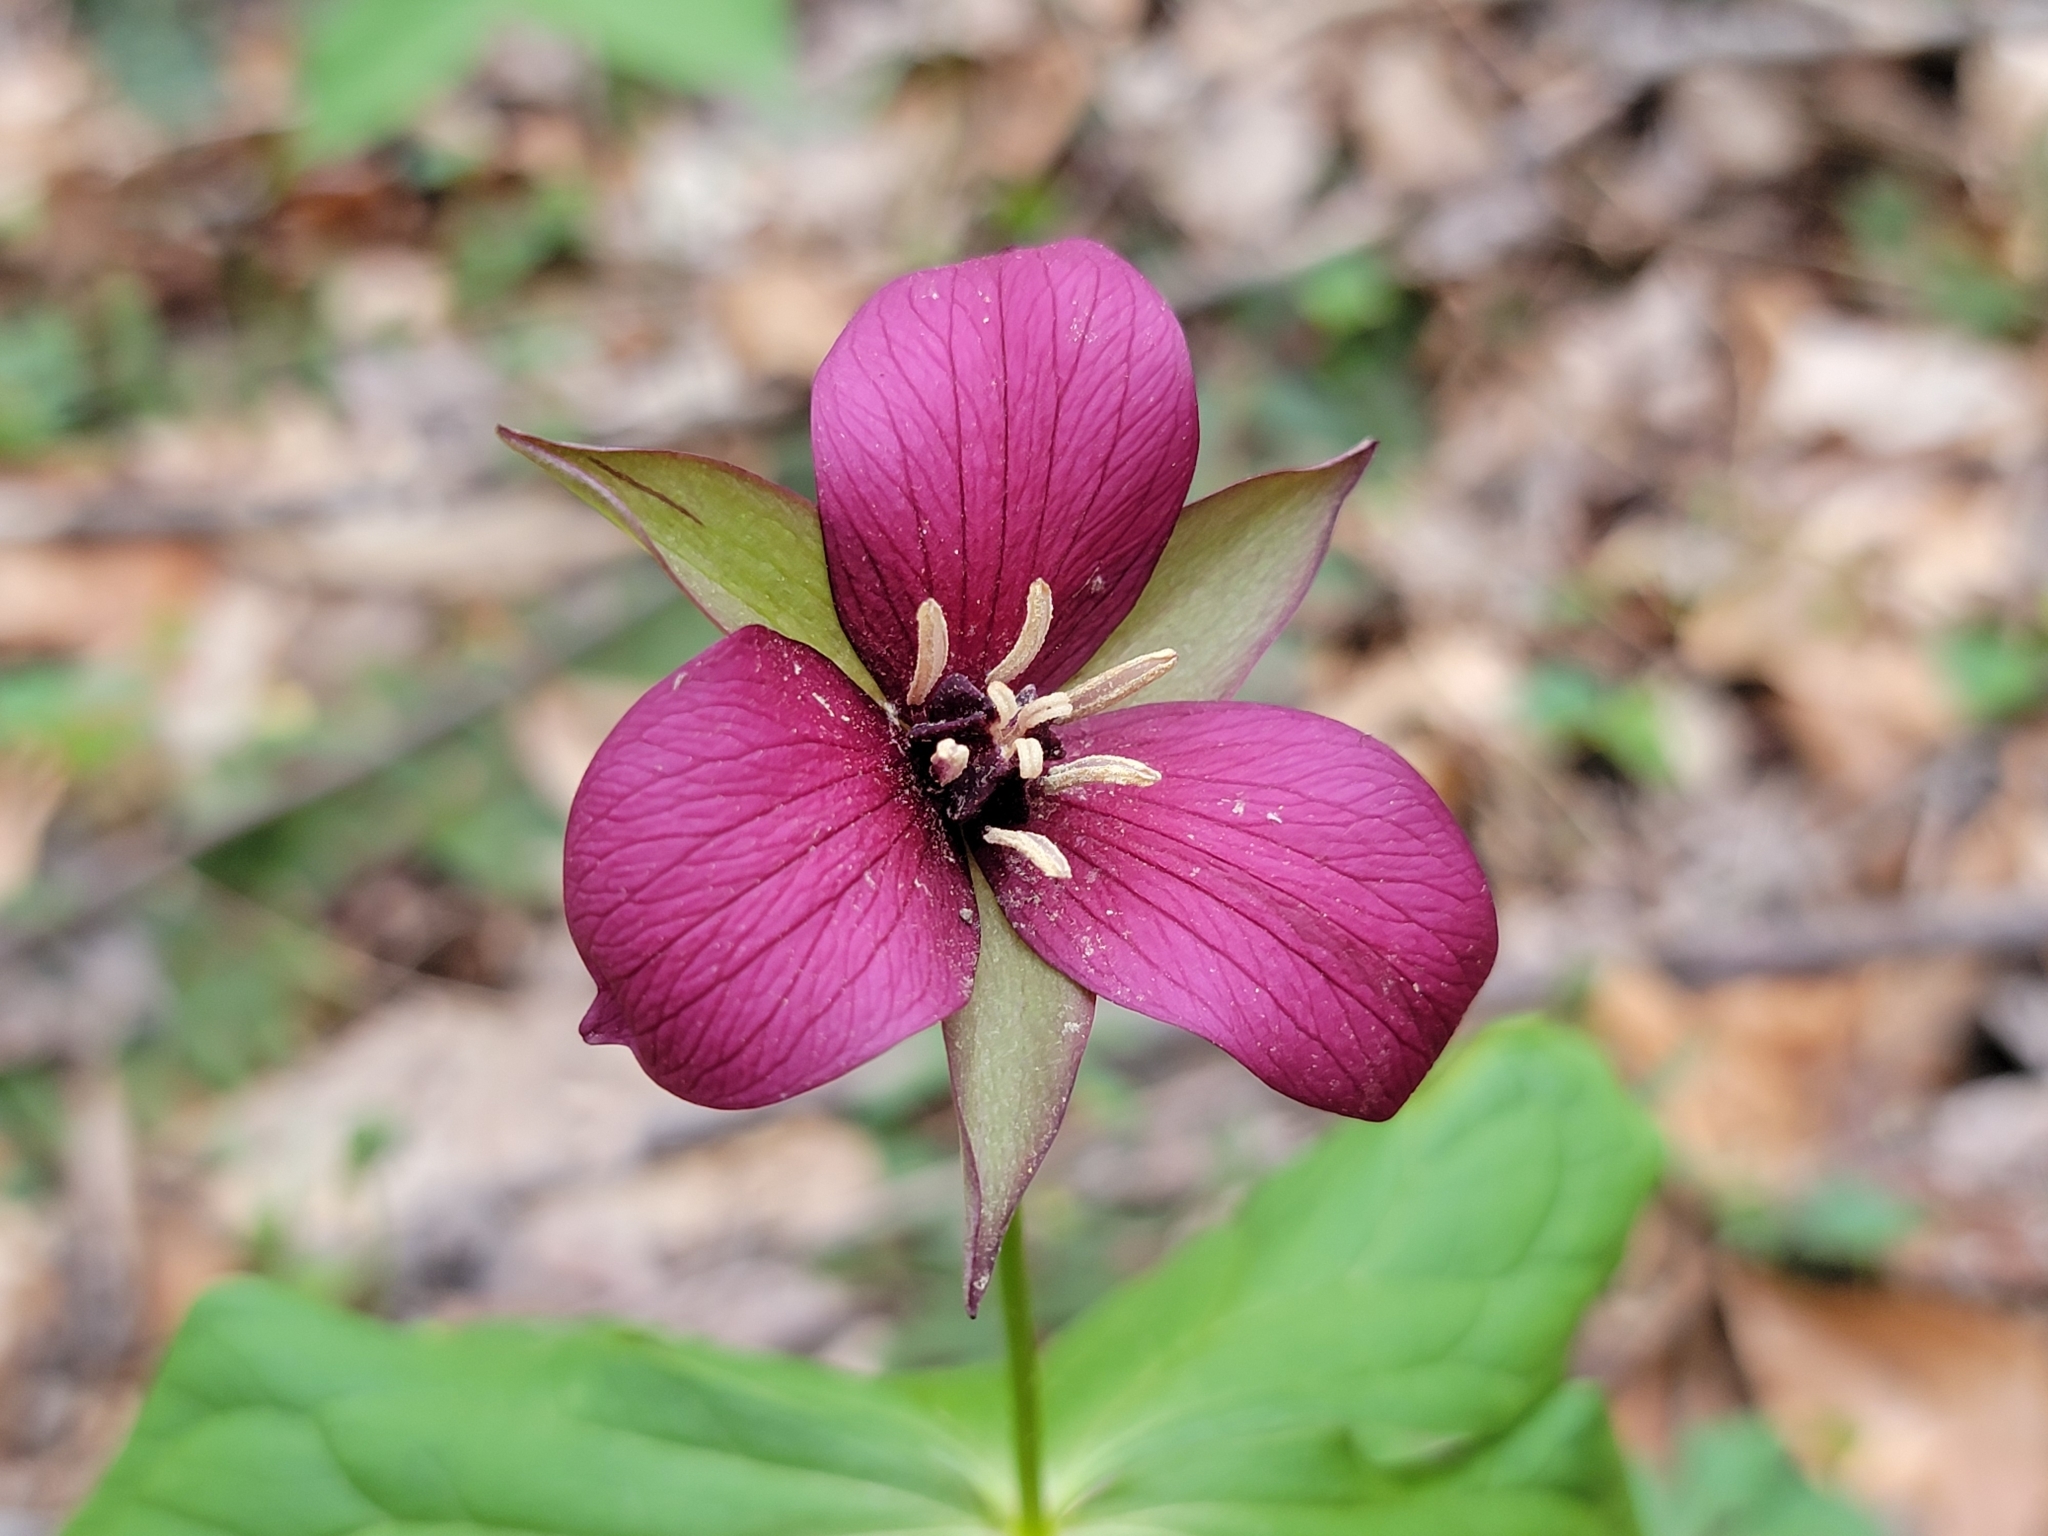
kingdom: Plantae
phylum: Tracheophyta
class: Liliopsida
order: Liliales
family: Melanthiaceae
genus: Trillium
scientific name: Trillium erectum
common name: Purple trillium
